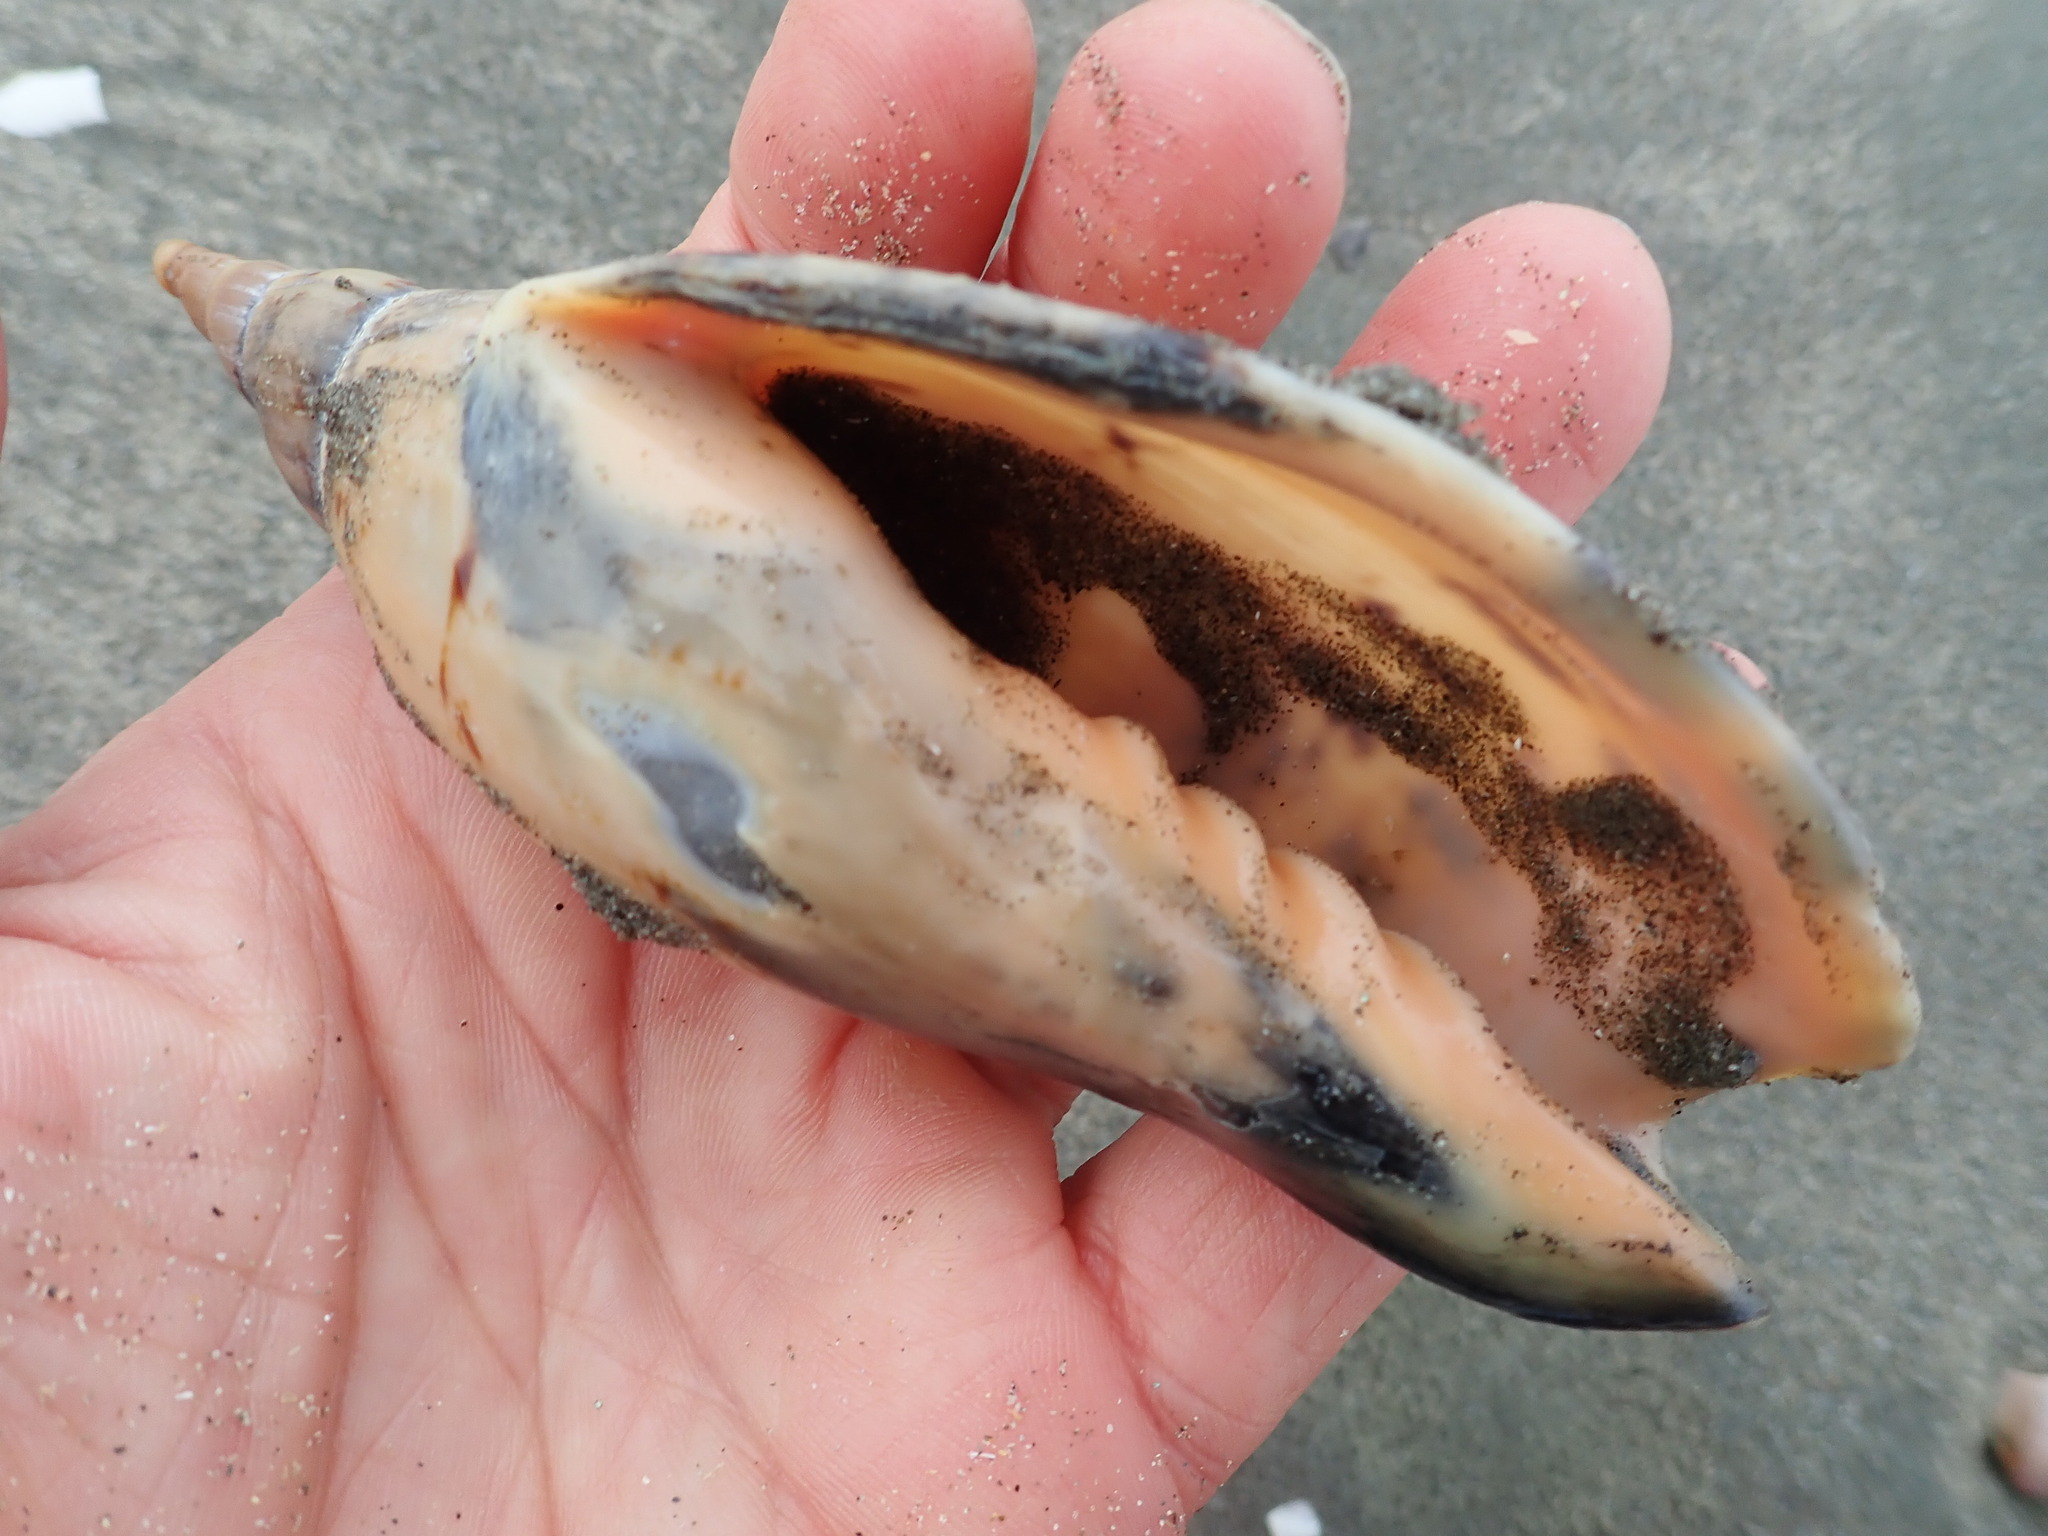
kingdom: Animalia
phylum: Mollusca
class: Gastropoda
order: Neogastropoda
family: Volutidae
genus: Alcithoe
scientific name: Alcithoe arabica
